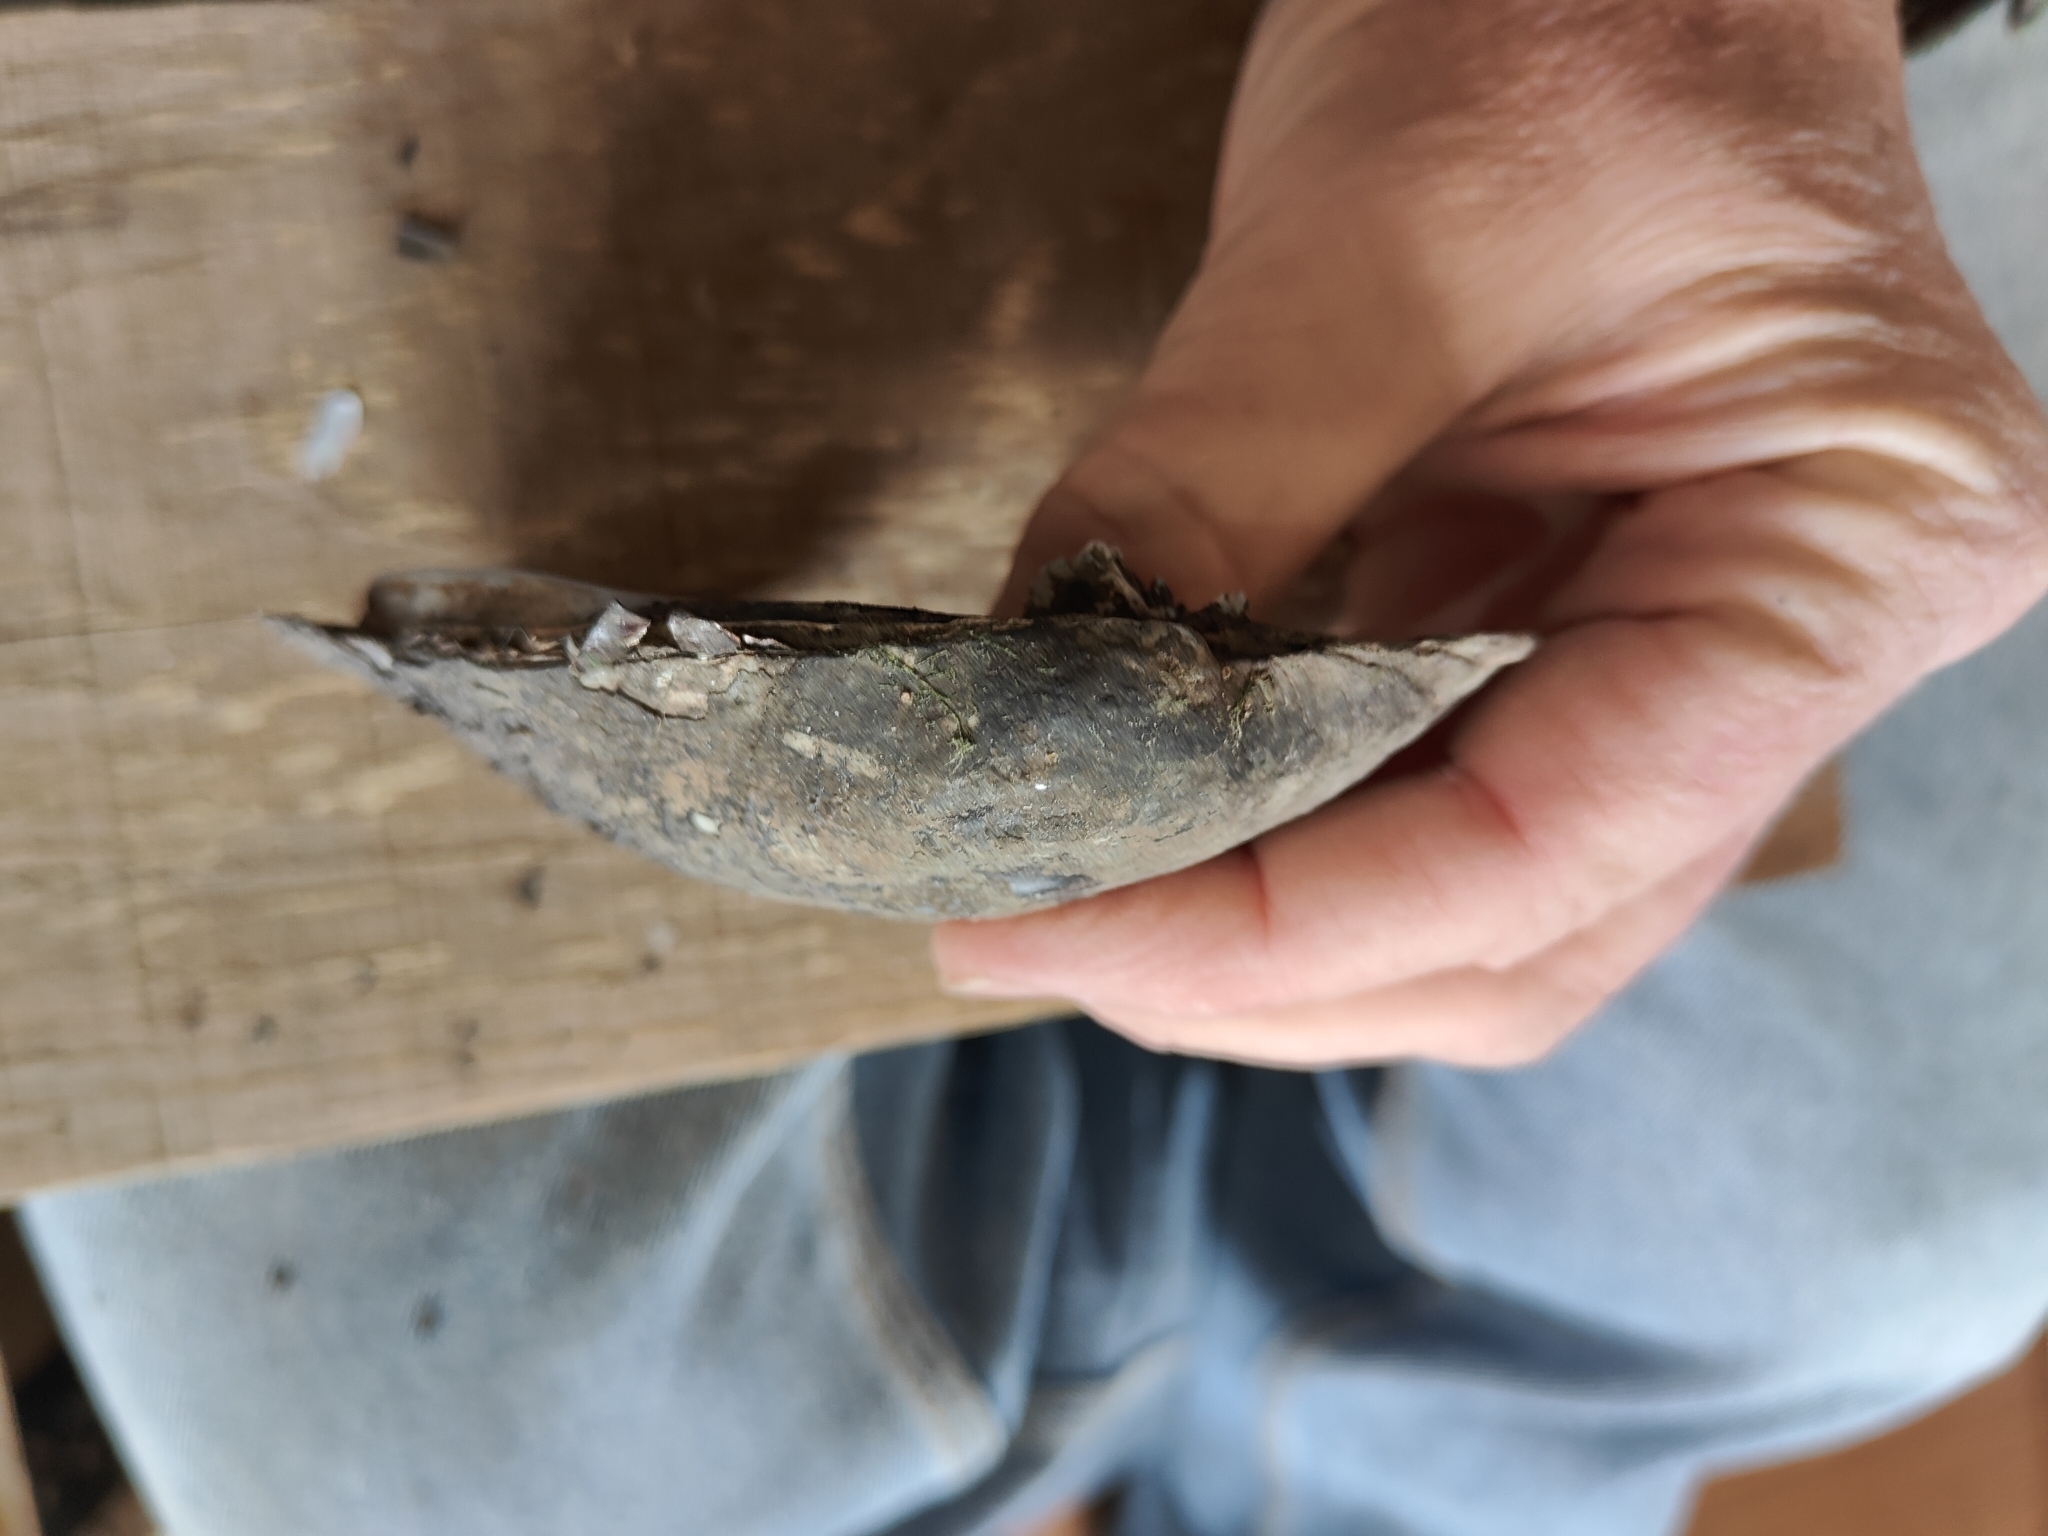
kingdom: Animalia
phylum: Mollusca
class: Bivalvia
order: Unionida
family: Unionidae
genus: Amblema
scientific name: Amblema plicata
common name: Threeridge
